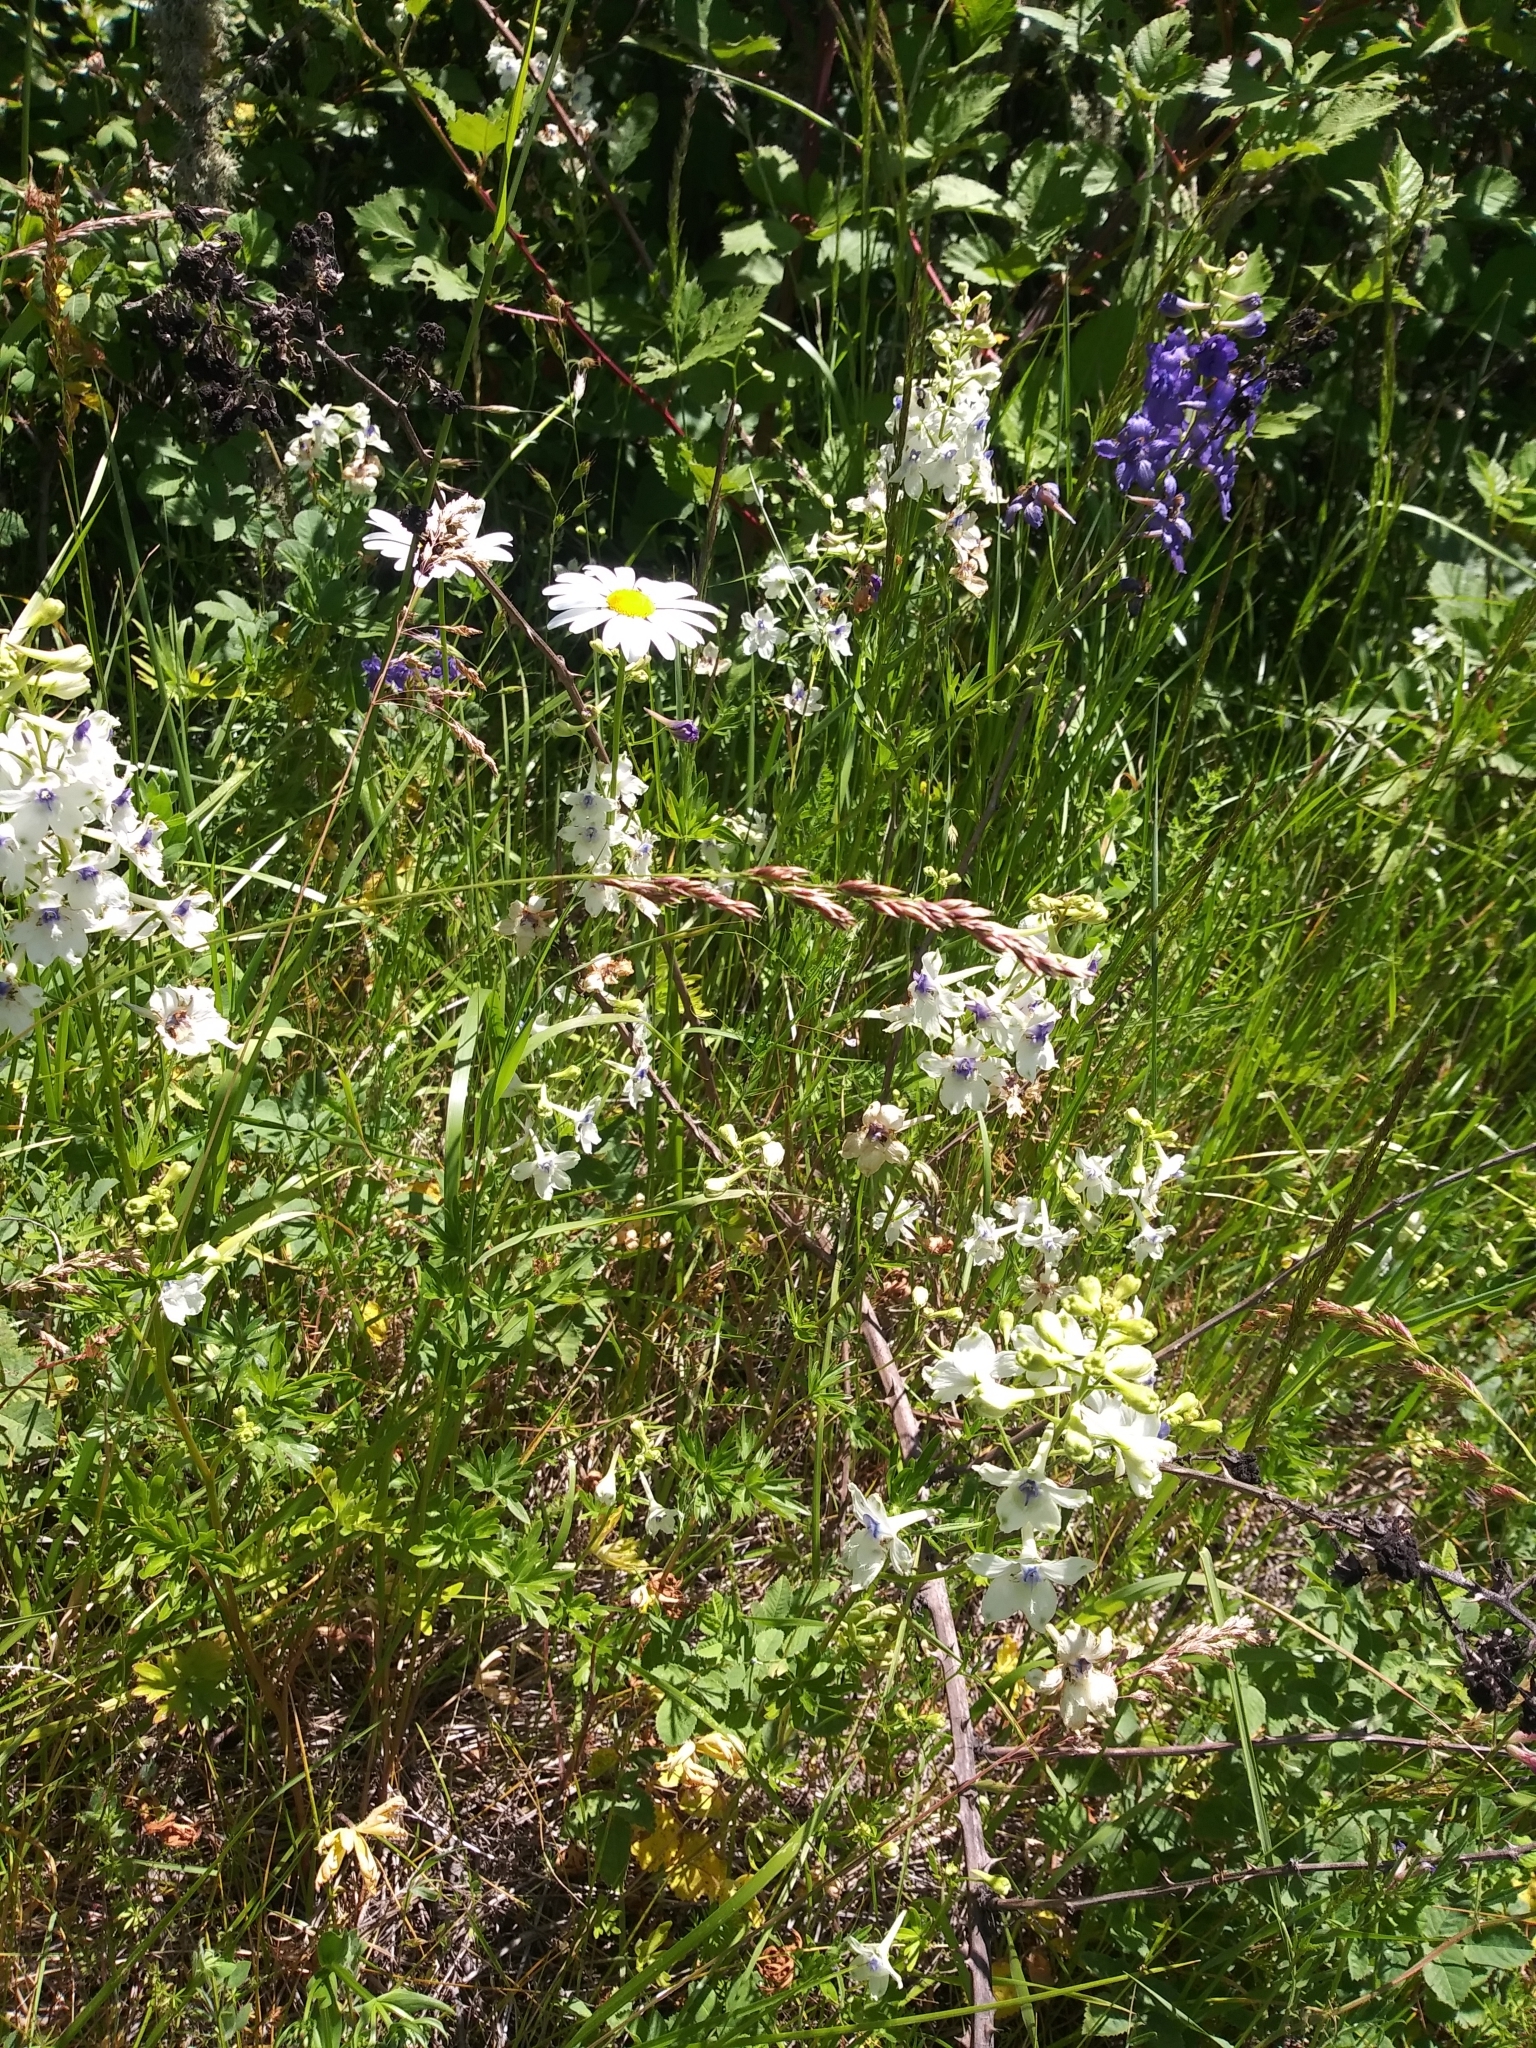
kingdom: Plantae
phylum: Tracheophyta
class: Magnoliopsida
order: Ranunculales
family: Ranunculaceae
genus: Delphinium
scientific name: Delphinium pavonaceum
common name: Peacock larkspur
